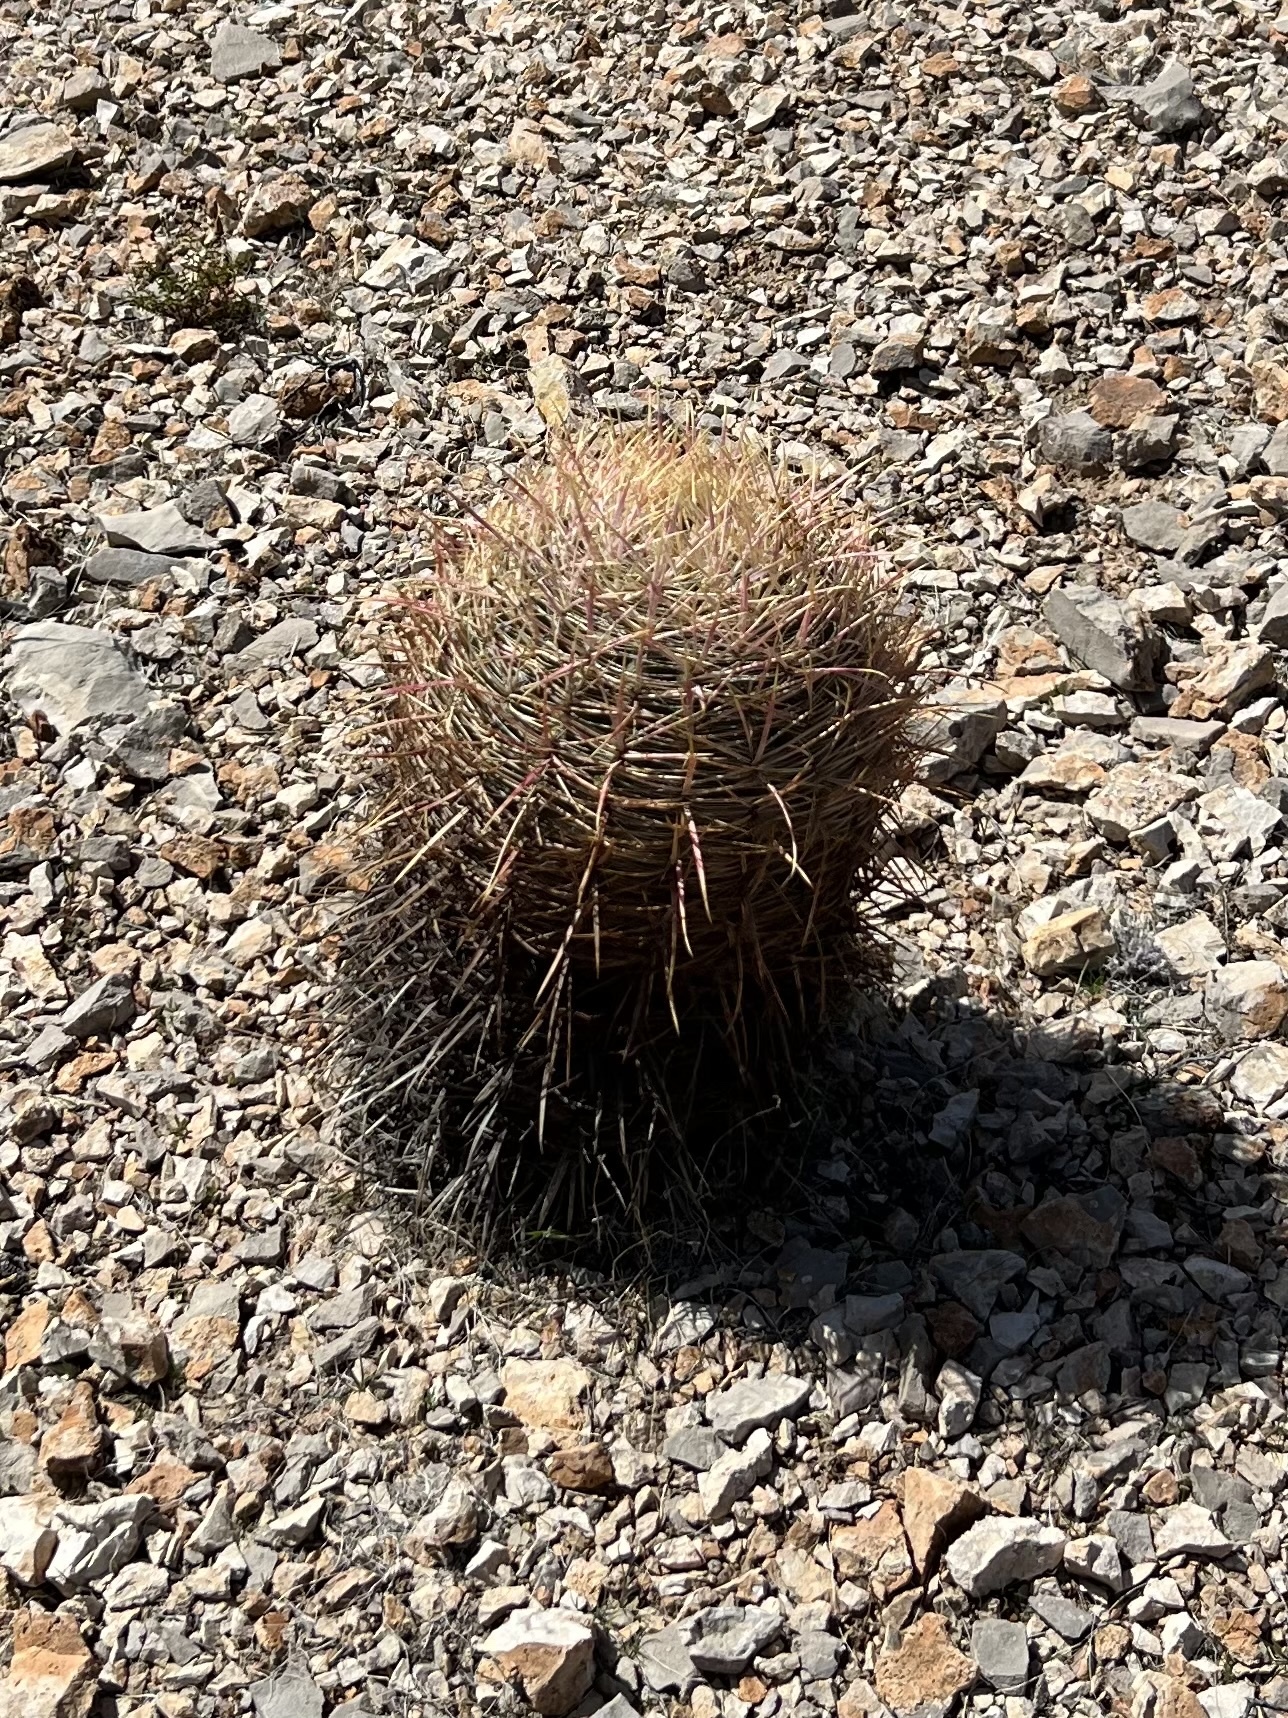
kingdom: Plantae
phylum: Tracheophyta
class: Magnoliopsida
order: Caryophyllales
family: Cactaceae
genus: Ferocactus
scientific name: Ferocactus cylindraceus
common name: California barrel cactus
